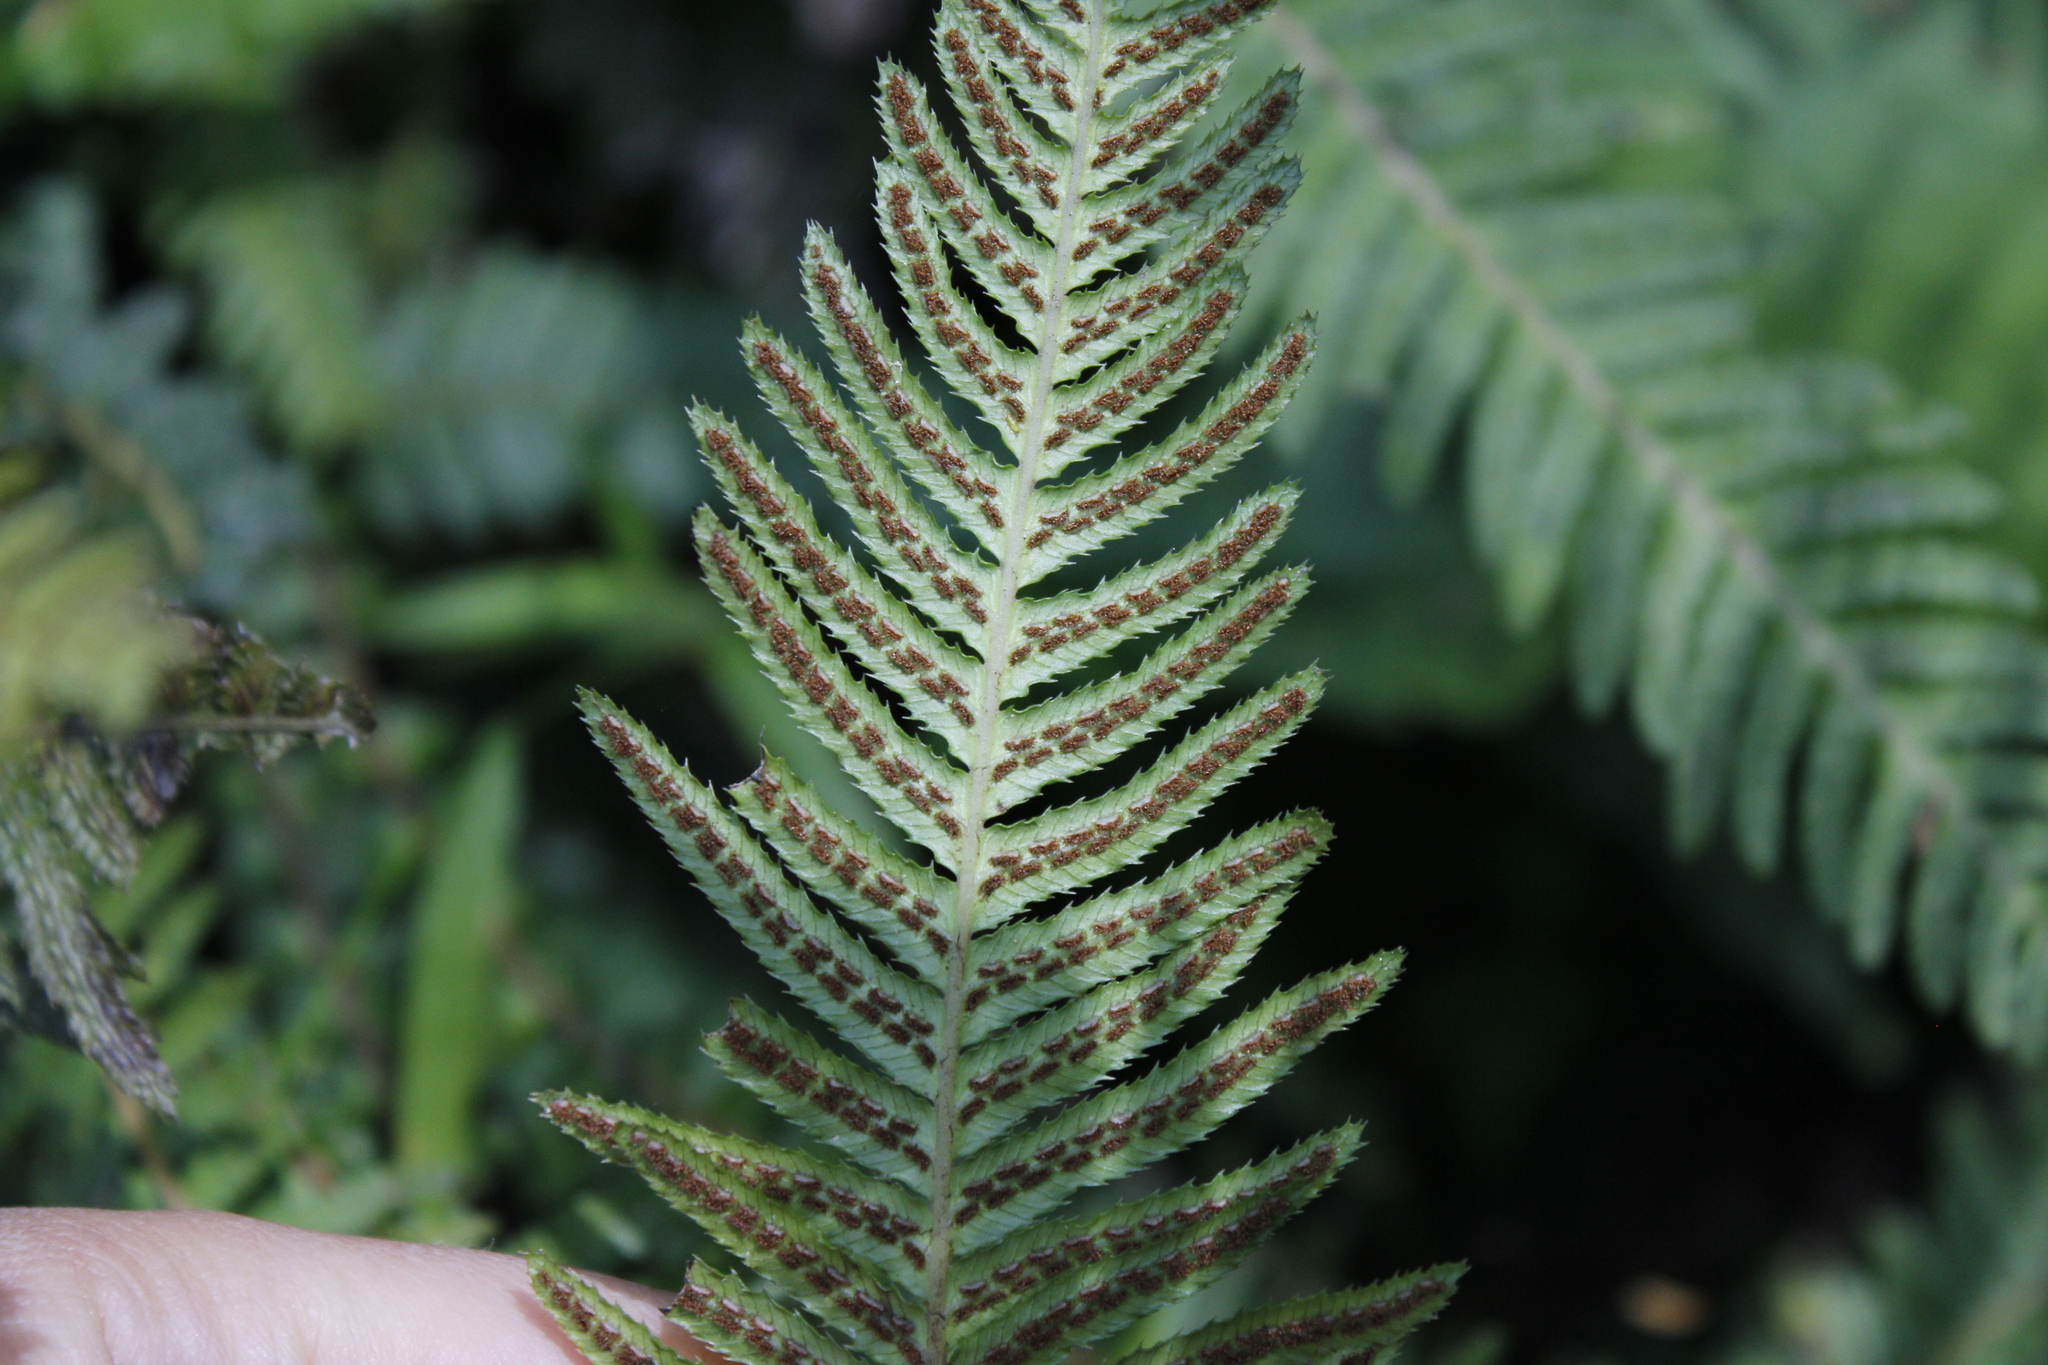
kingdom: Plantae
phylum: Tracheophyta
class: Polypodiopsida
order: Polypodiales
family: Blechnaceae
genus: Doodia
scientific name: Doodia australis
